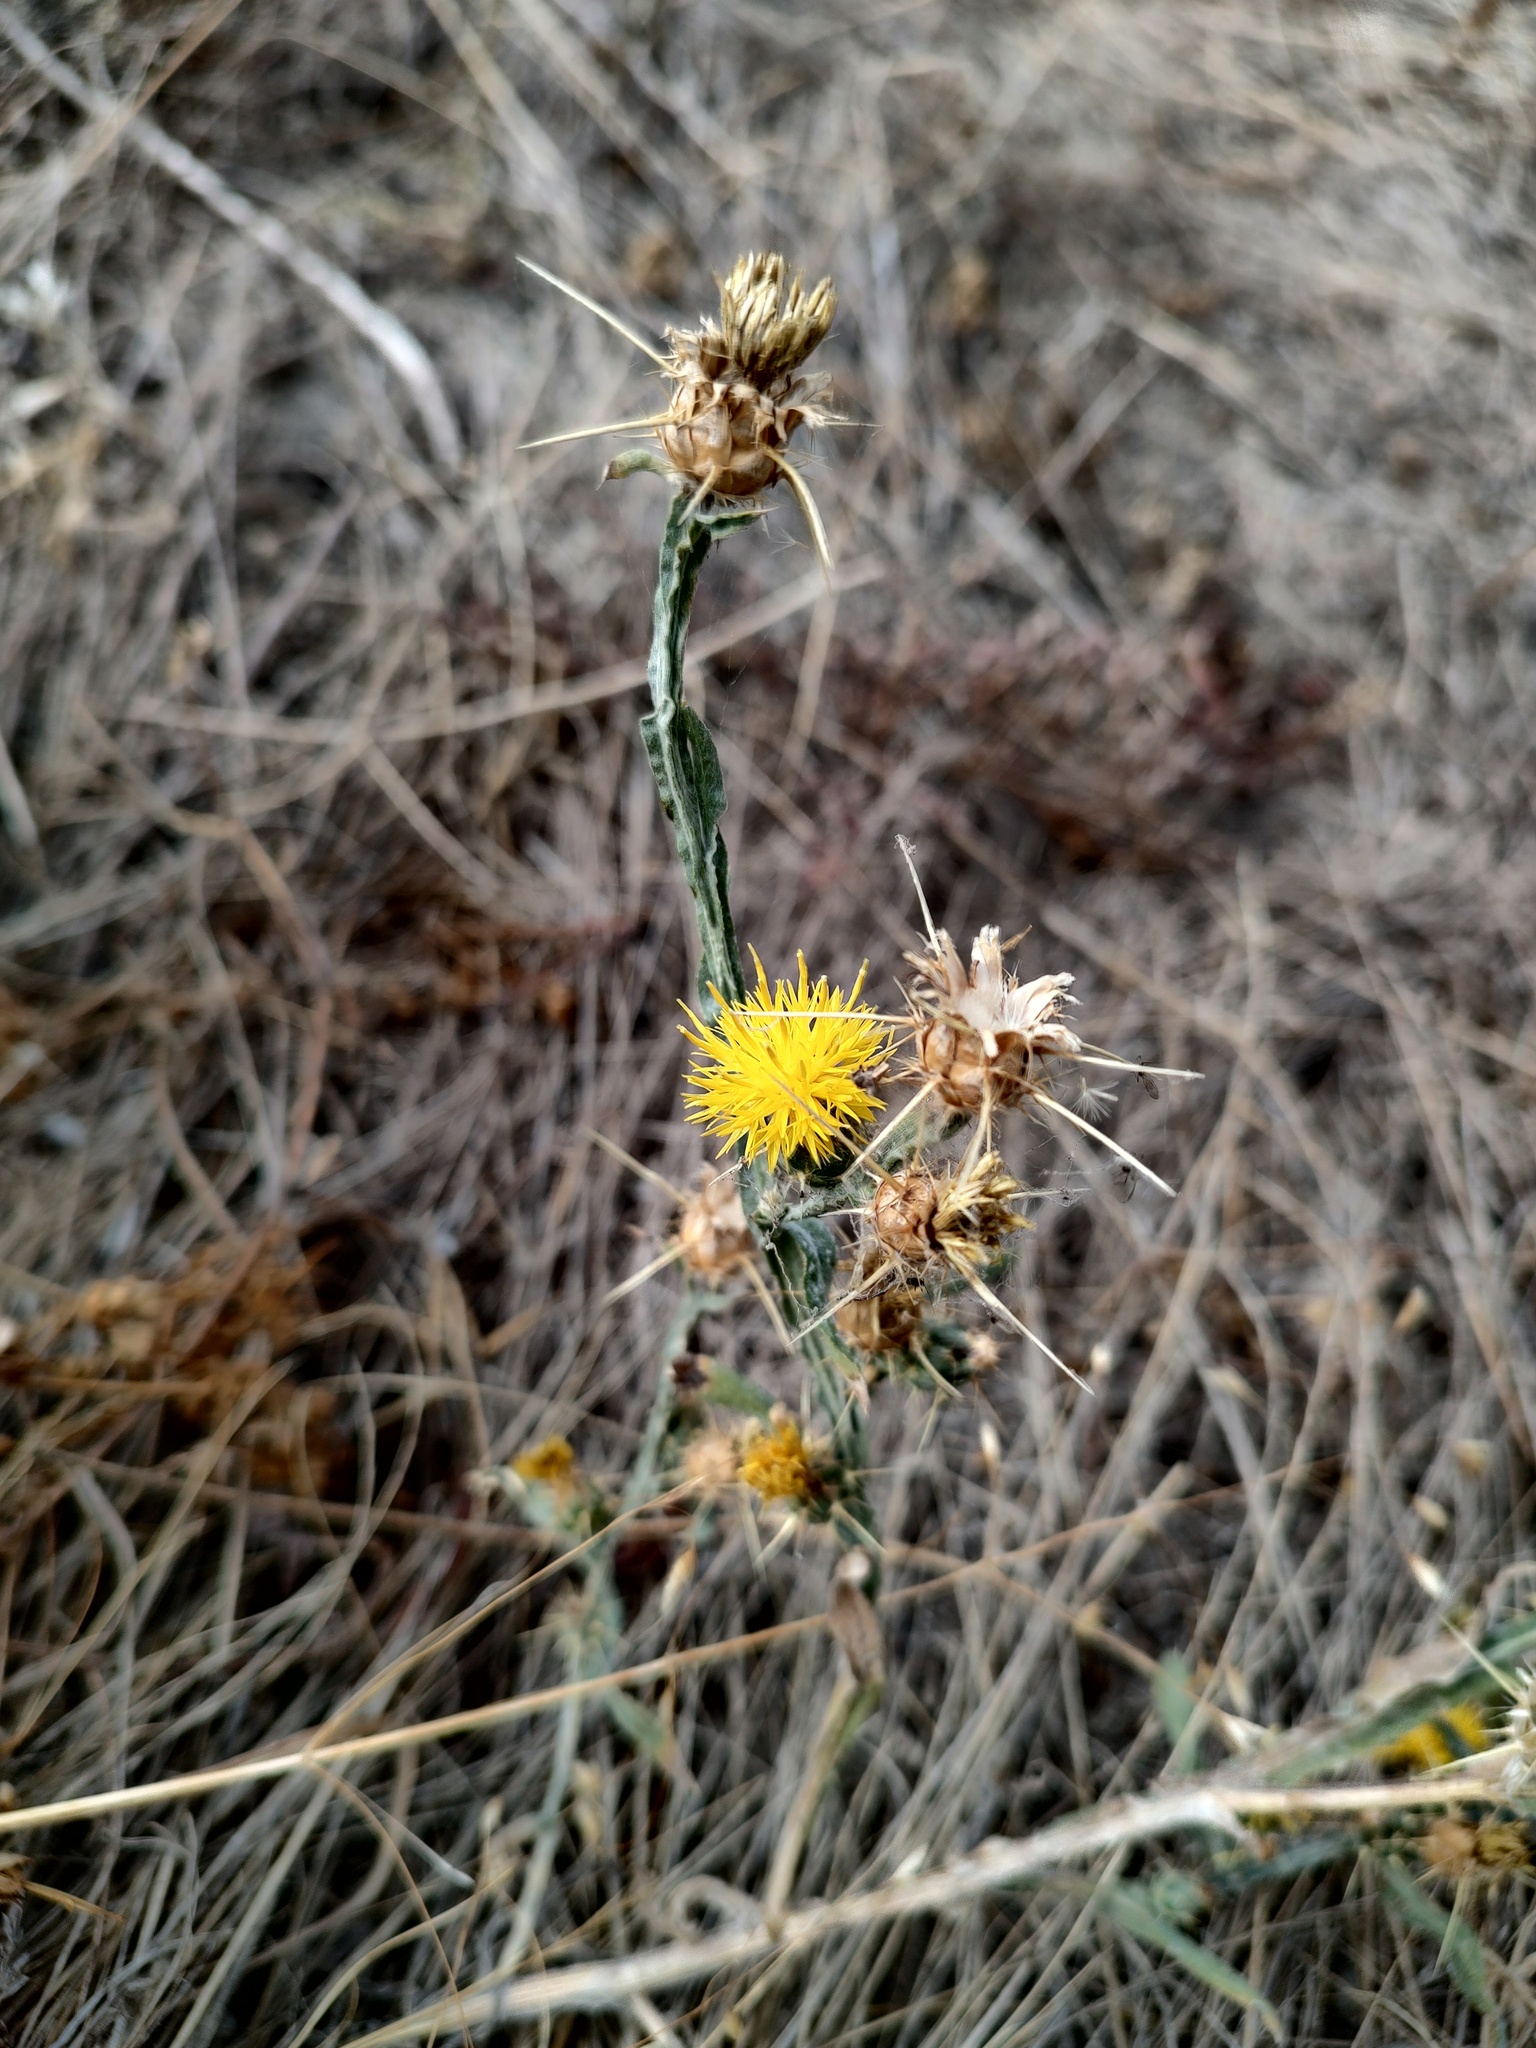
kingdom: Plantae
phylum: Tracheophyta
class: Magnoliopsida
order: Asterales
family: Asteraceae
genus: Centaurea
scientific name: Centaurea solstitialis
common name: Yellow star-thistle
